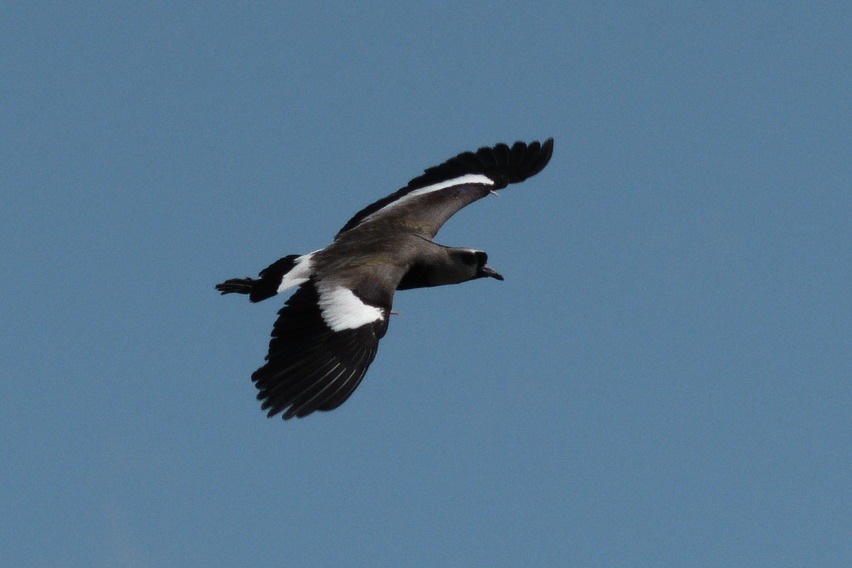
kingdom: Animalia
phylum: Chordata
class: Aves
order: Charadriiformes
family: Charadriidae
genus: Vanellus
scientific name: Vanellus chilensis
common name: Southern lapwing
